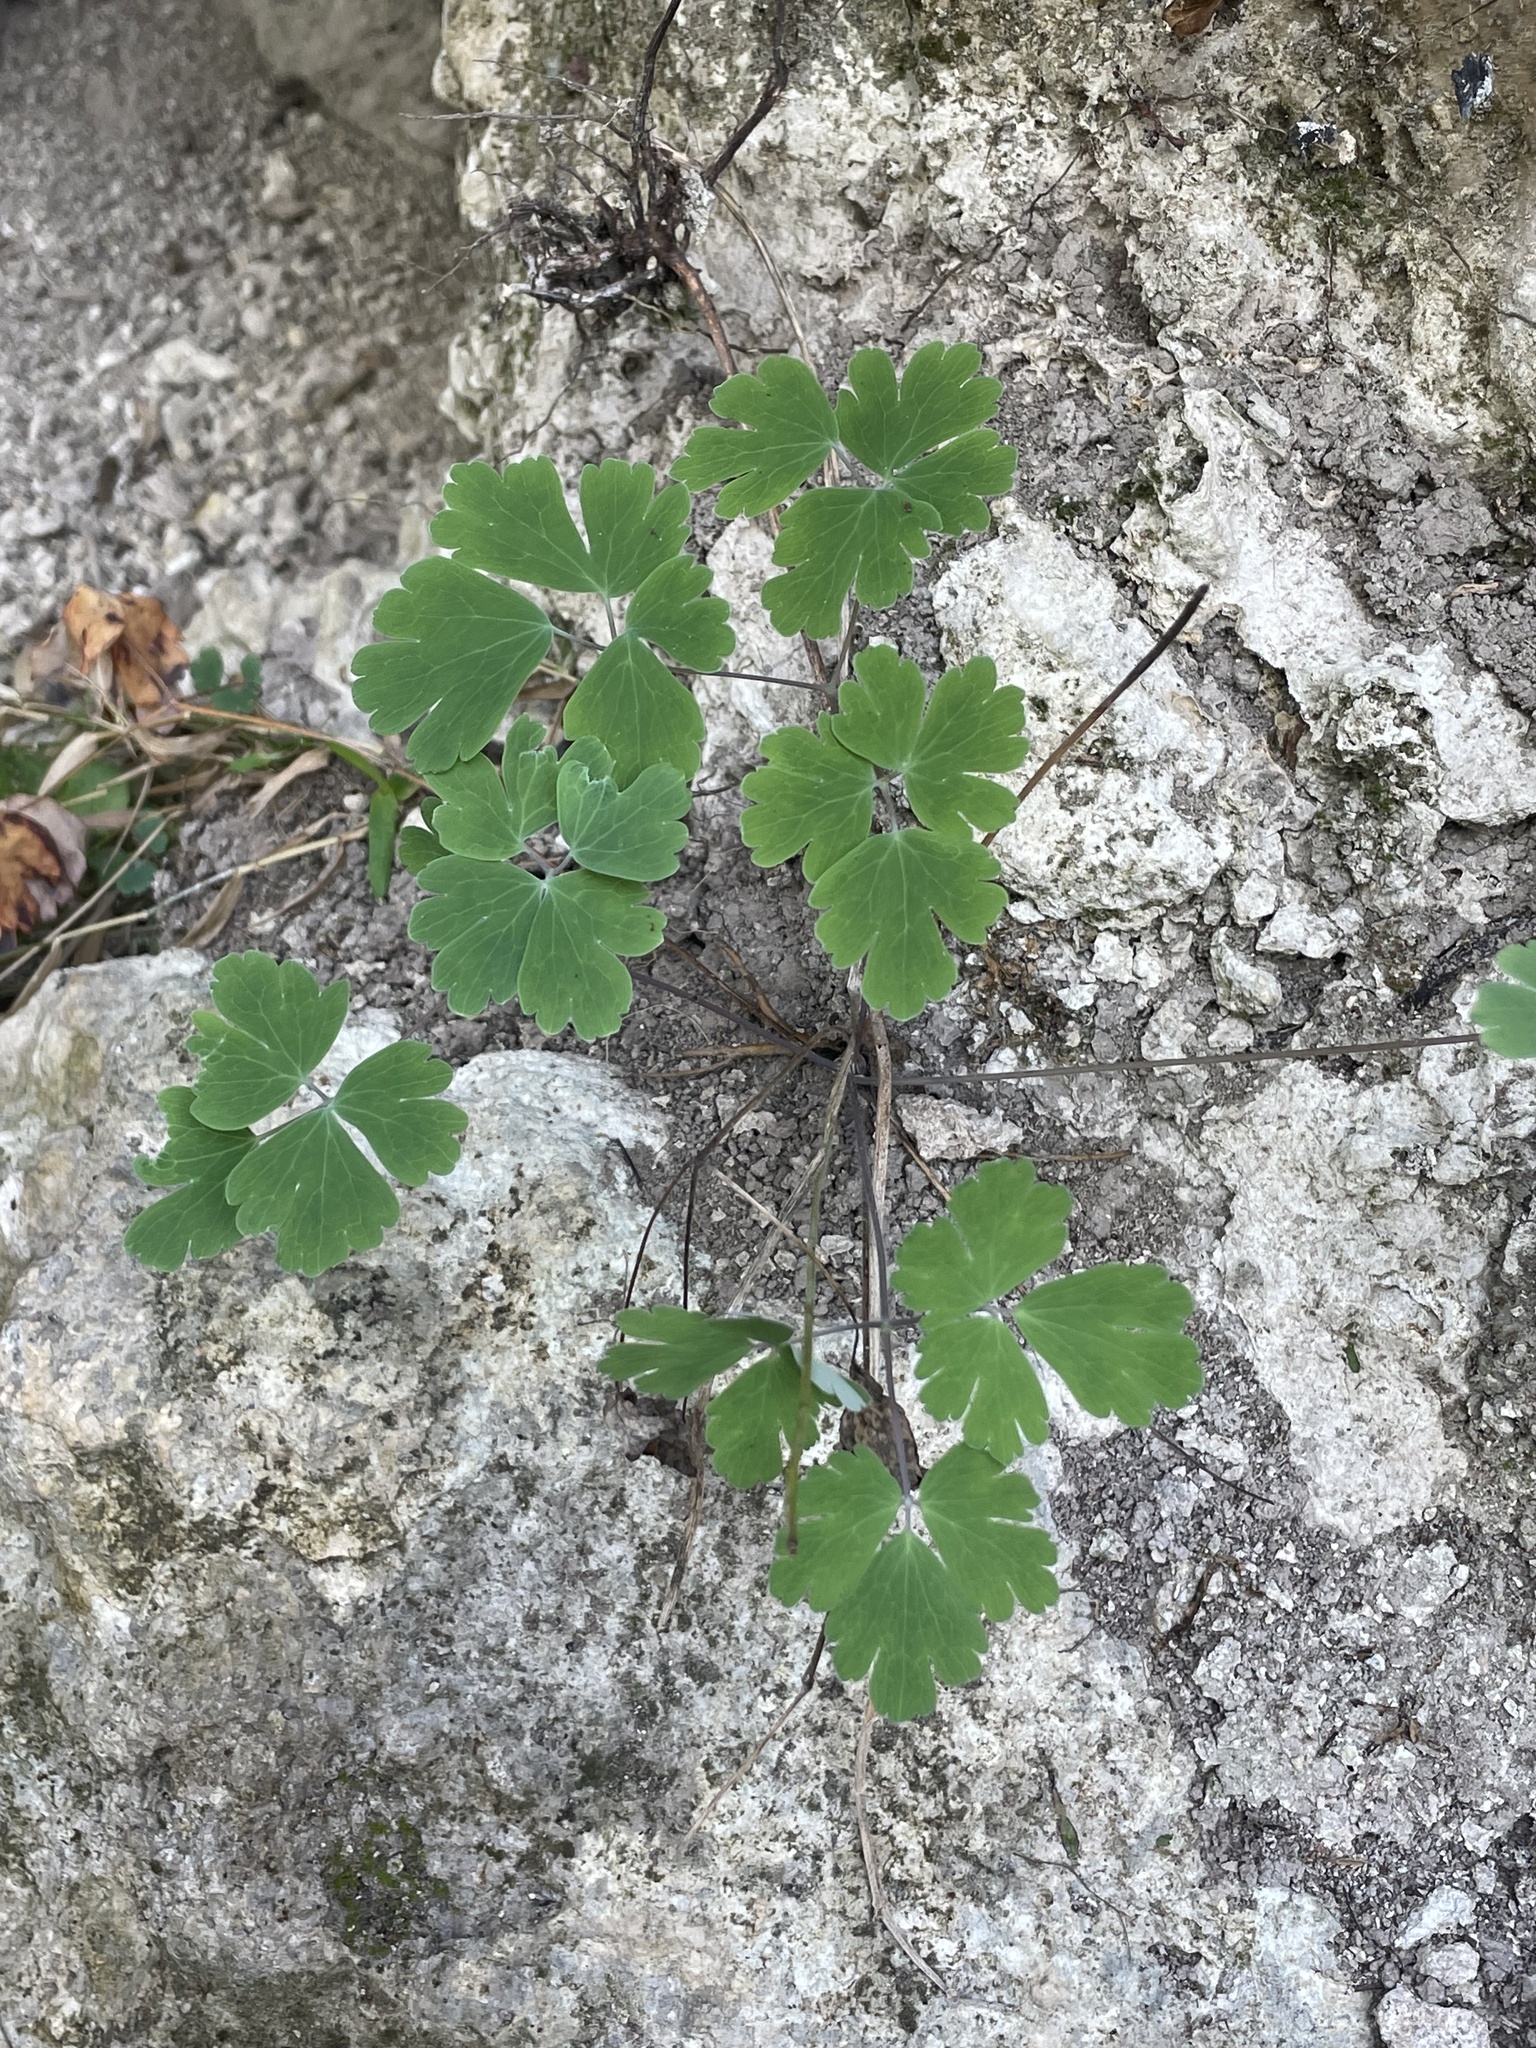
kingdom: Plantae
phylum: Tracheophyta
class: Magnoliopsida
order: Ranunculales
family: Ranunculaceae
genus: Aquilegia
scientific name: Aquilegia canadensis
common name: American columbine
